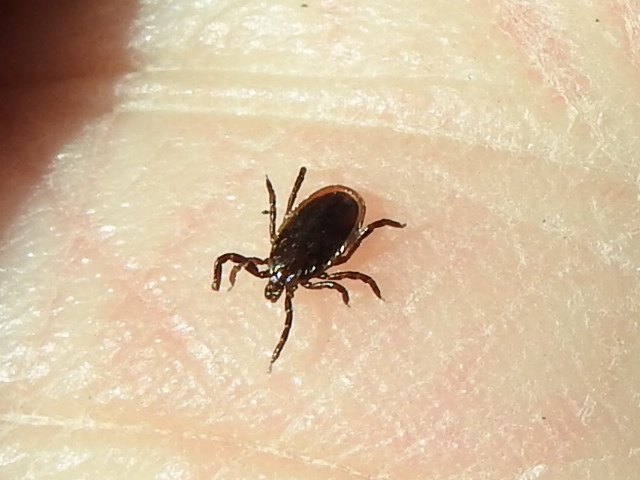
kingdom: Animalia
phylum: Arthropoda
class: Arachnida
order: Ixodida
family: Ixodidae
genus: Ixodes
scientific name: Ixodes scapularis
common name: Black legged tick
